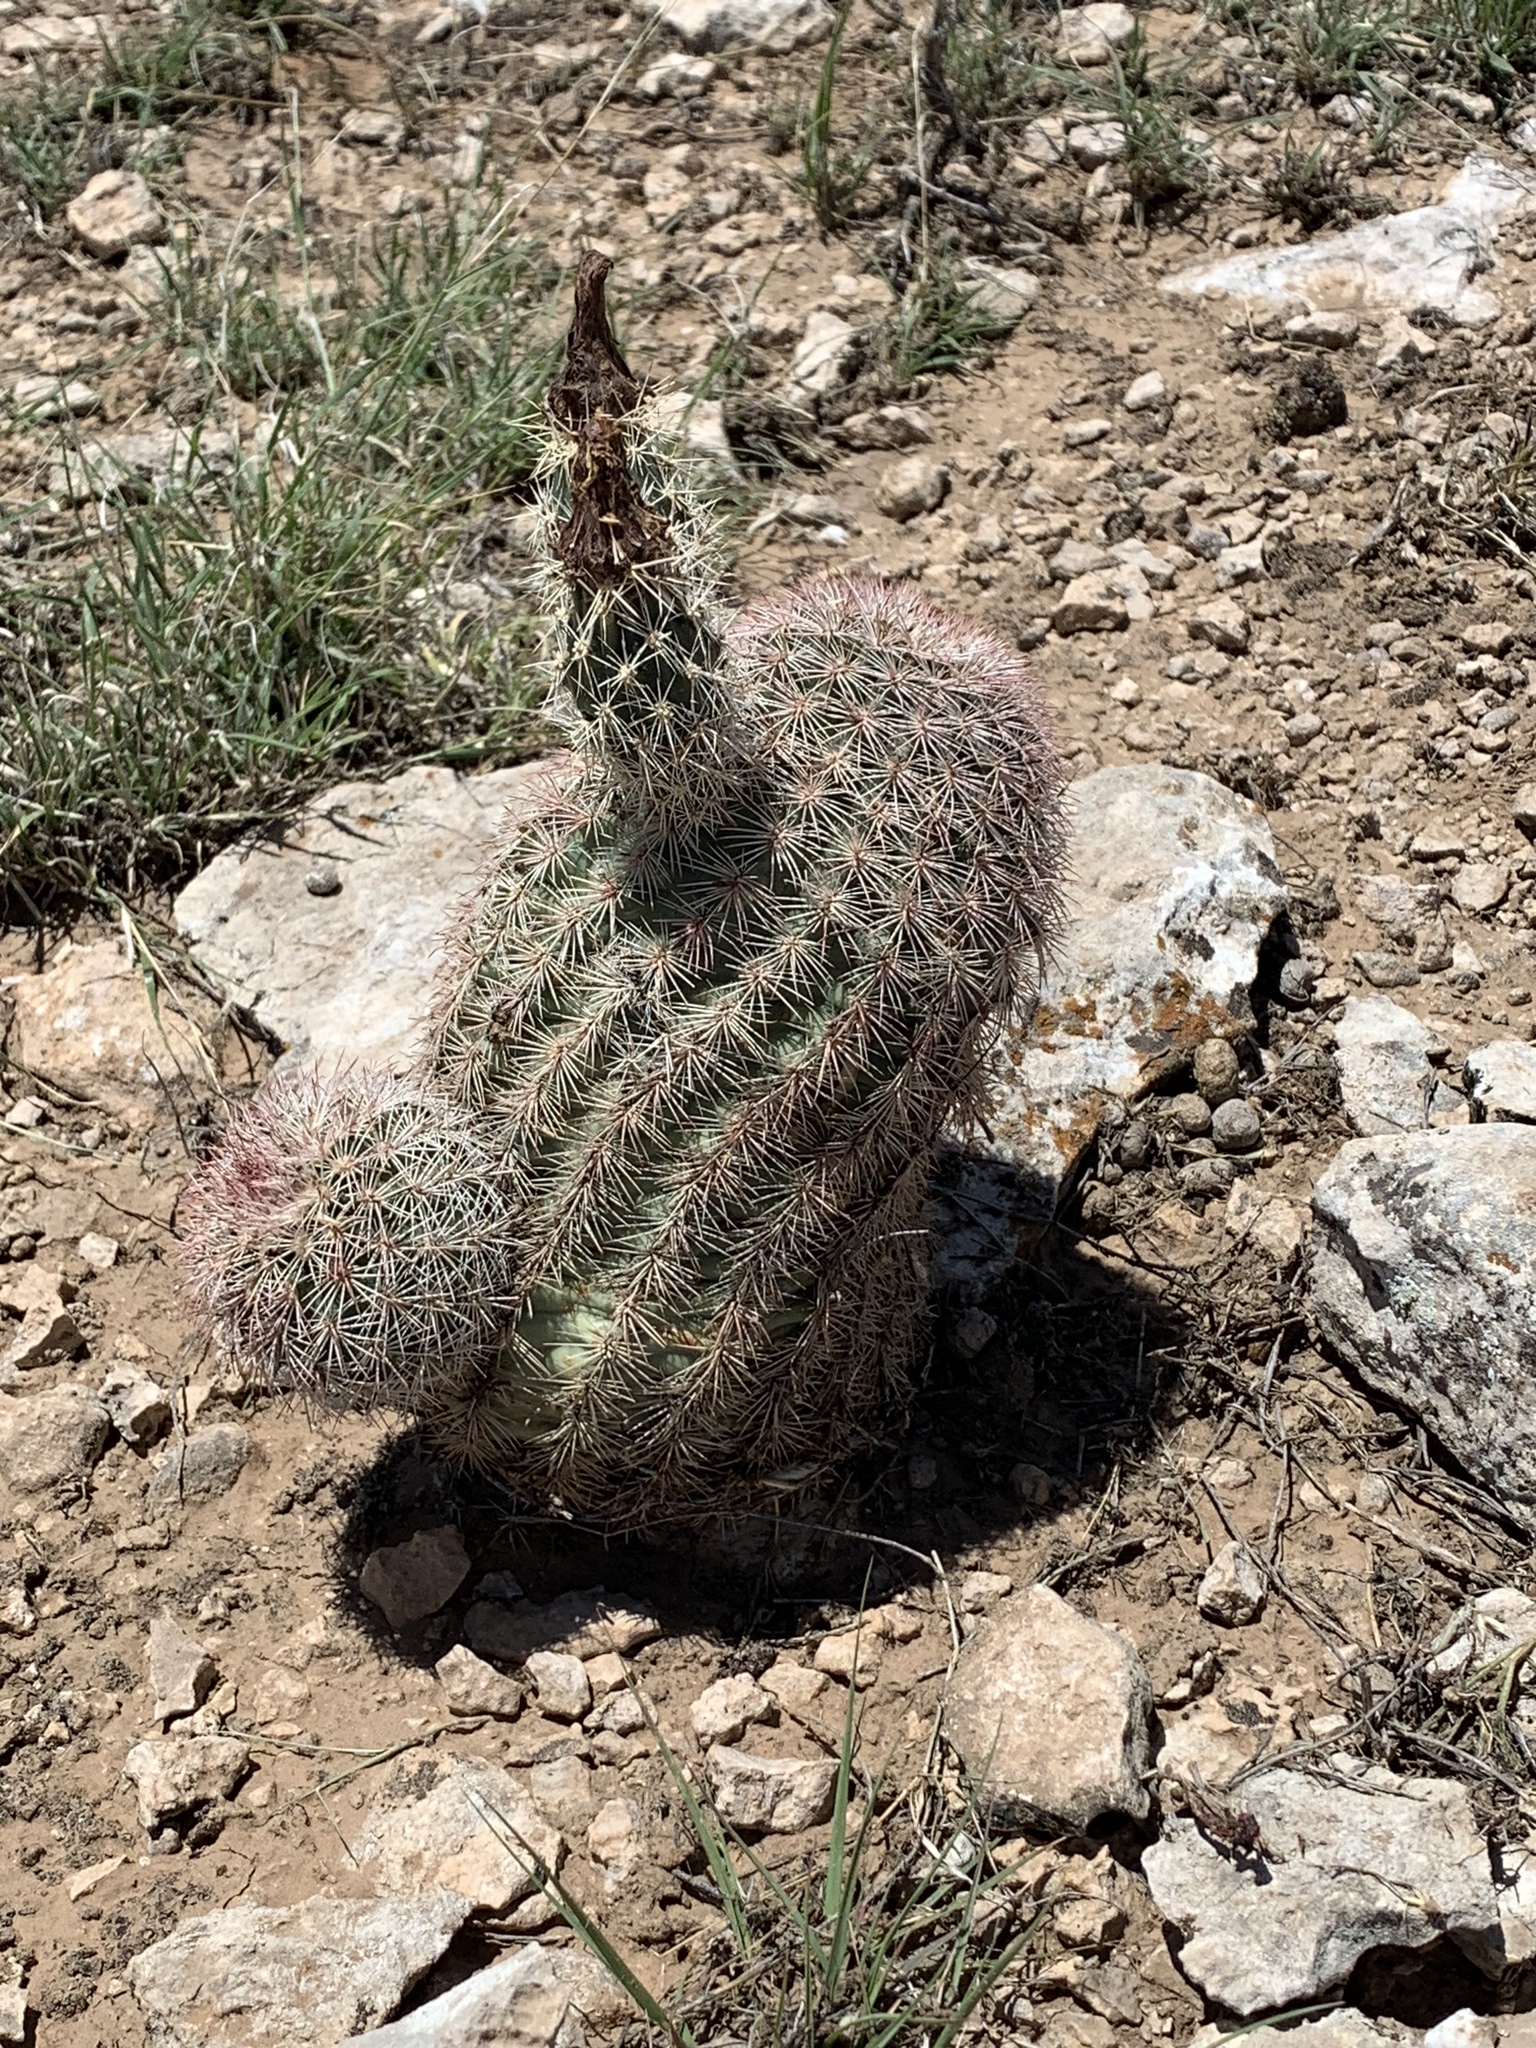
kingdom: Plantae
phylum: Tracheophyta
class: Magnoliopsida
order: Caryophyllales
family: Cactaceae
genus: Echinocereus
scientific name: Echinocereus dasyacanthus
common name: Spiny hedgehog cactus
